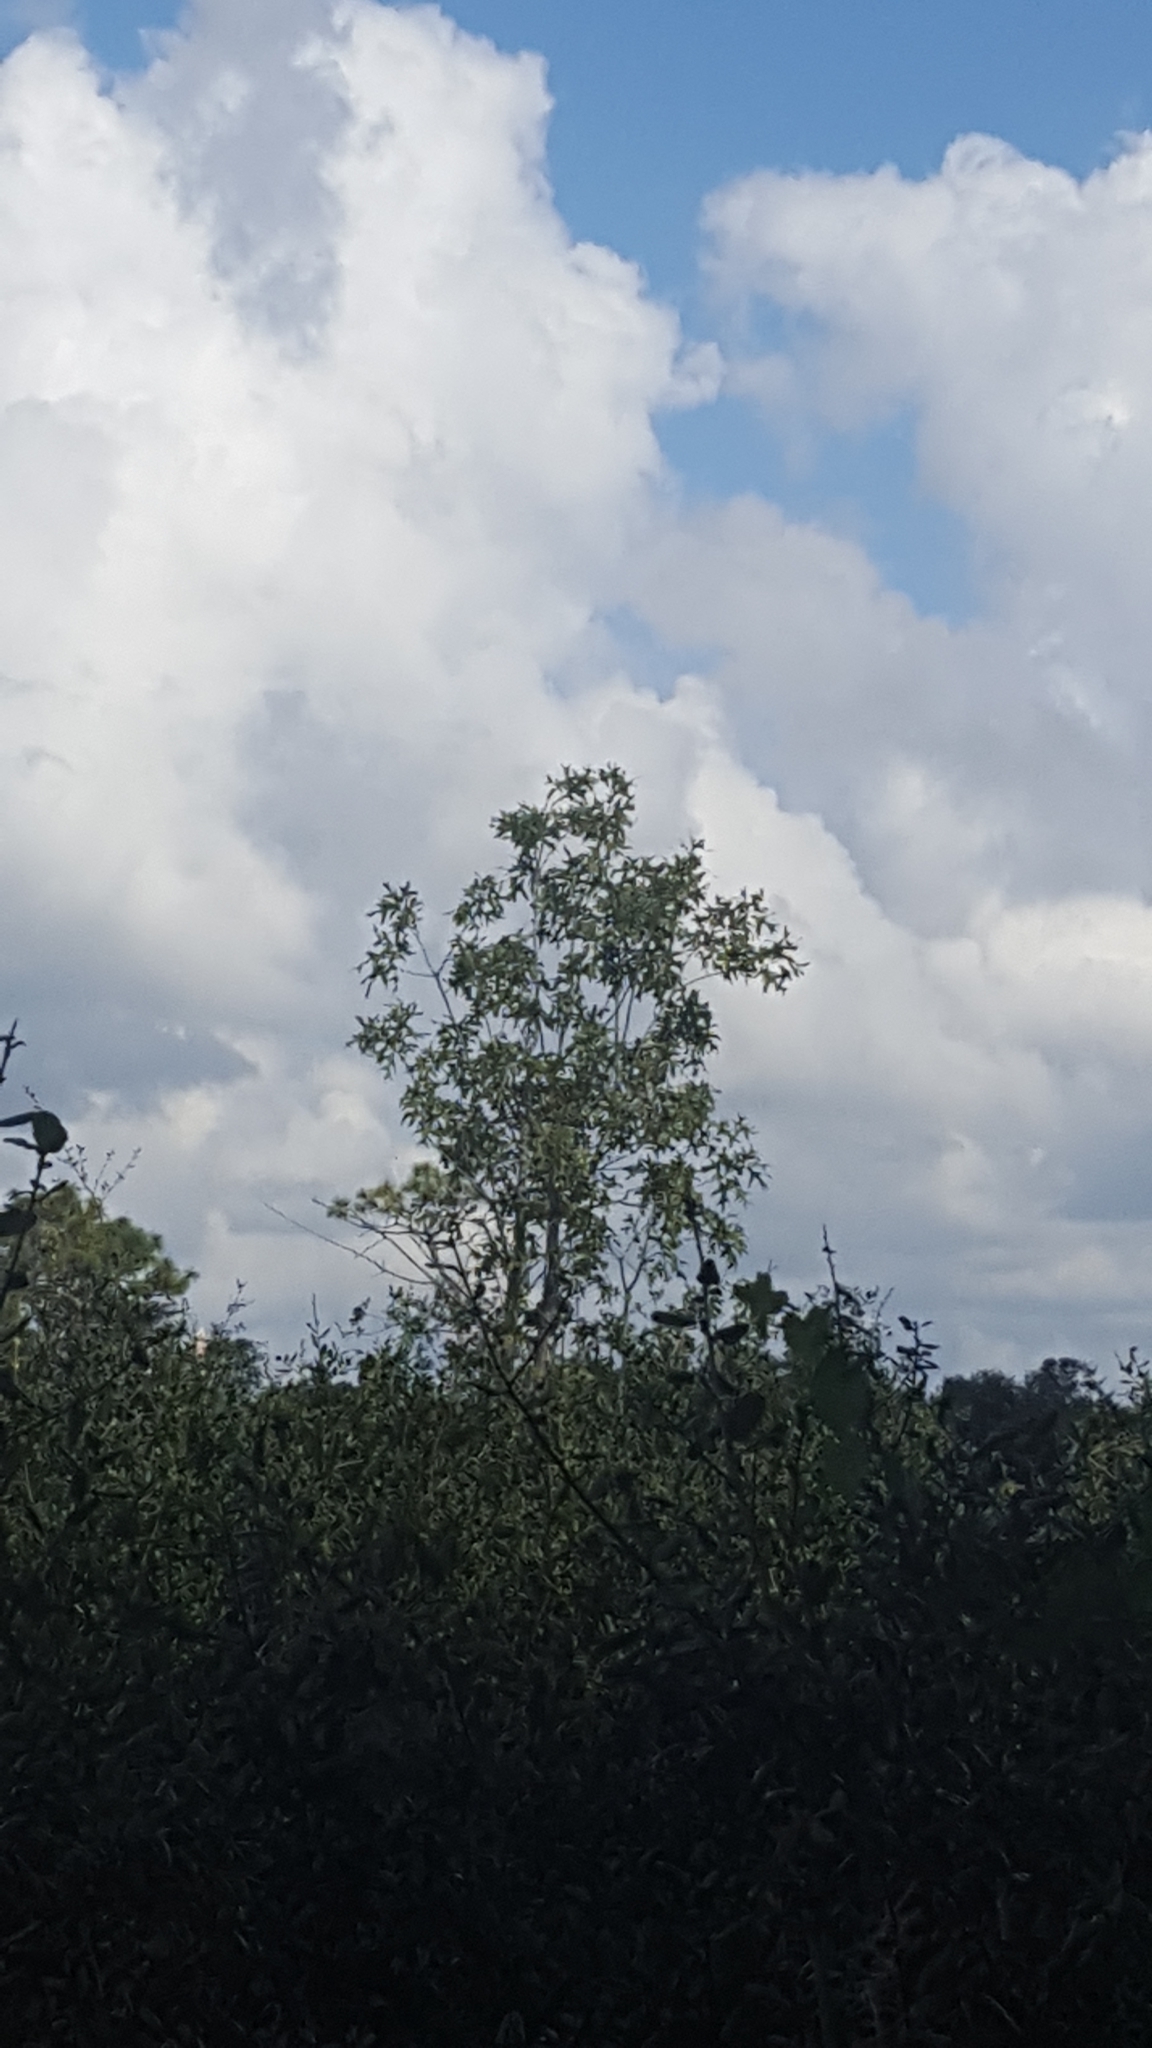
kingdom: Plantae
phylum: Tracheophyta
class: Magnoliopsida
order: Fagales
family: Fagaceae
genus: Quercus
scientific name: Quercus laevis
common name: Turkey oak
